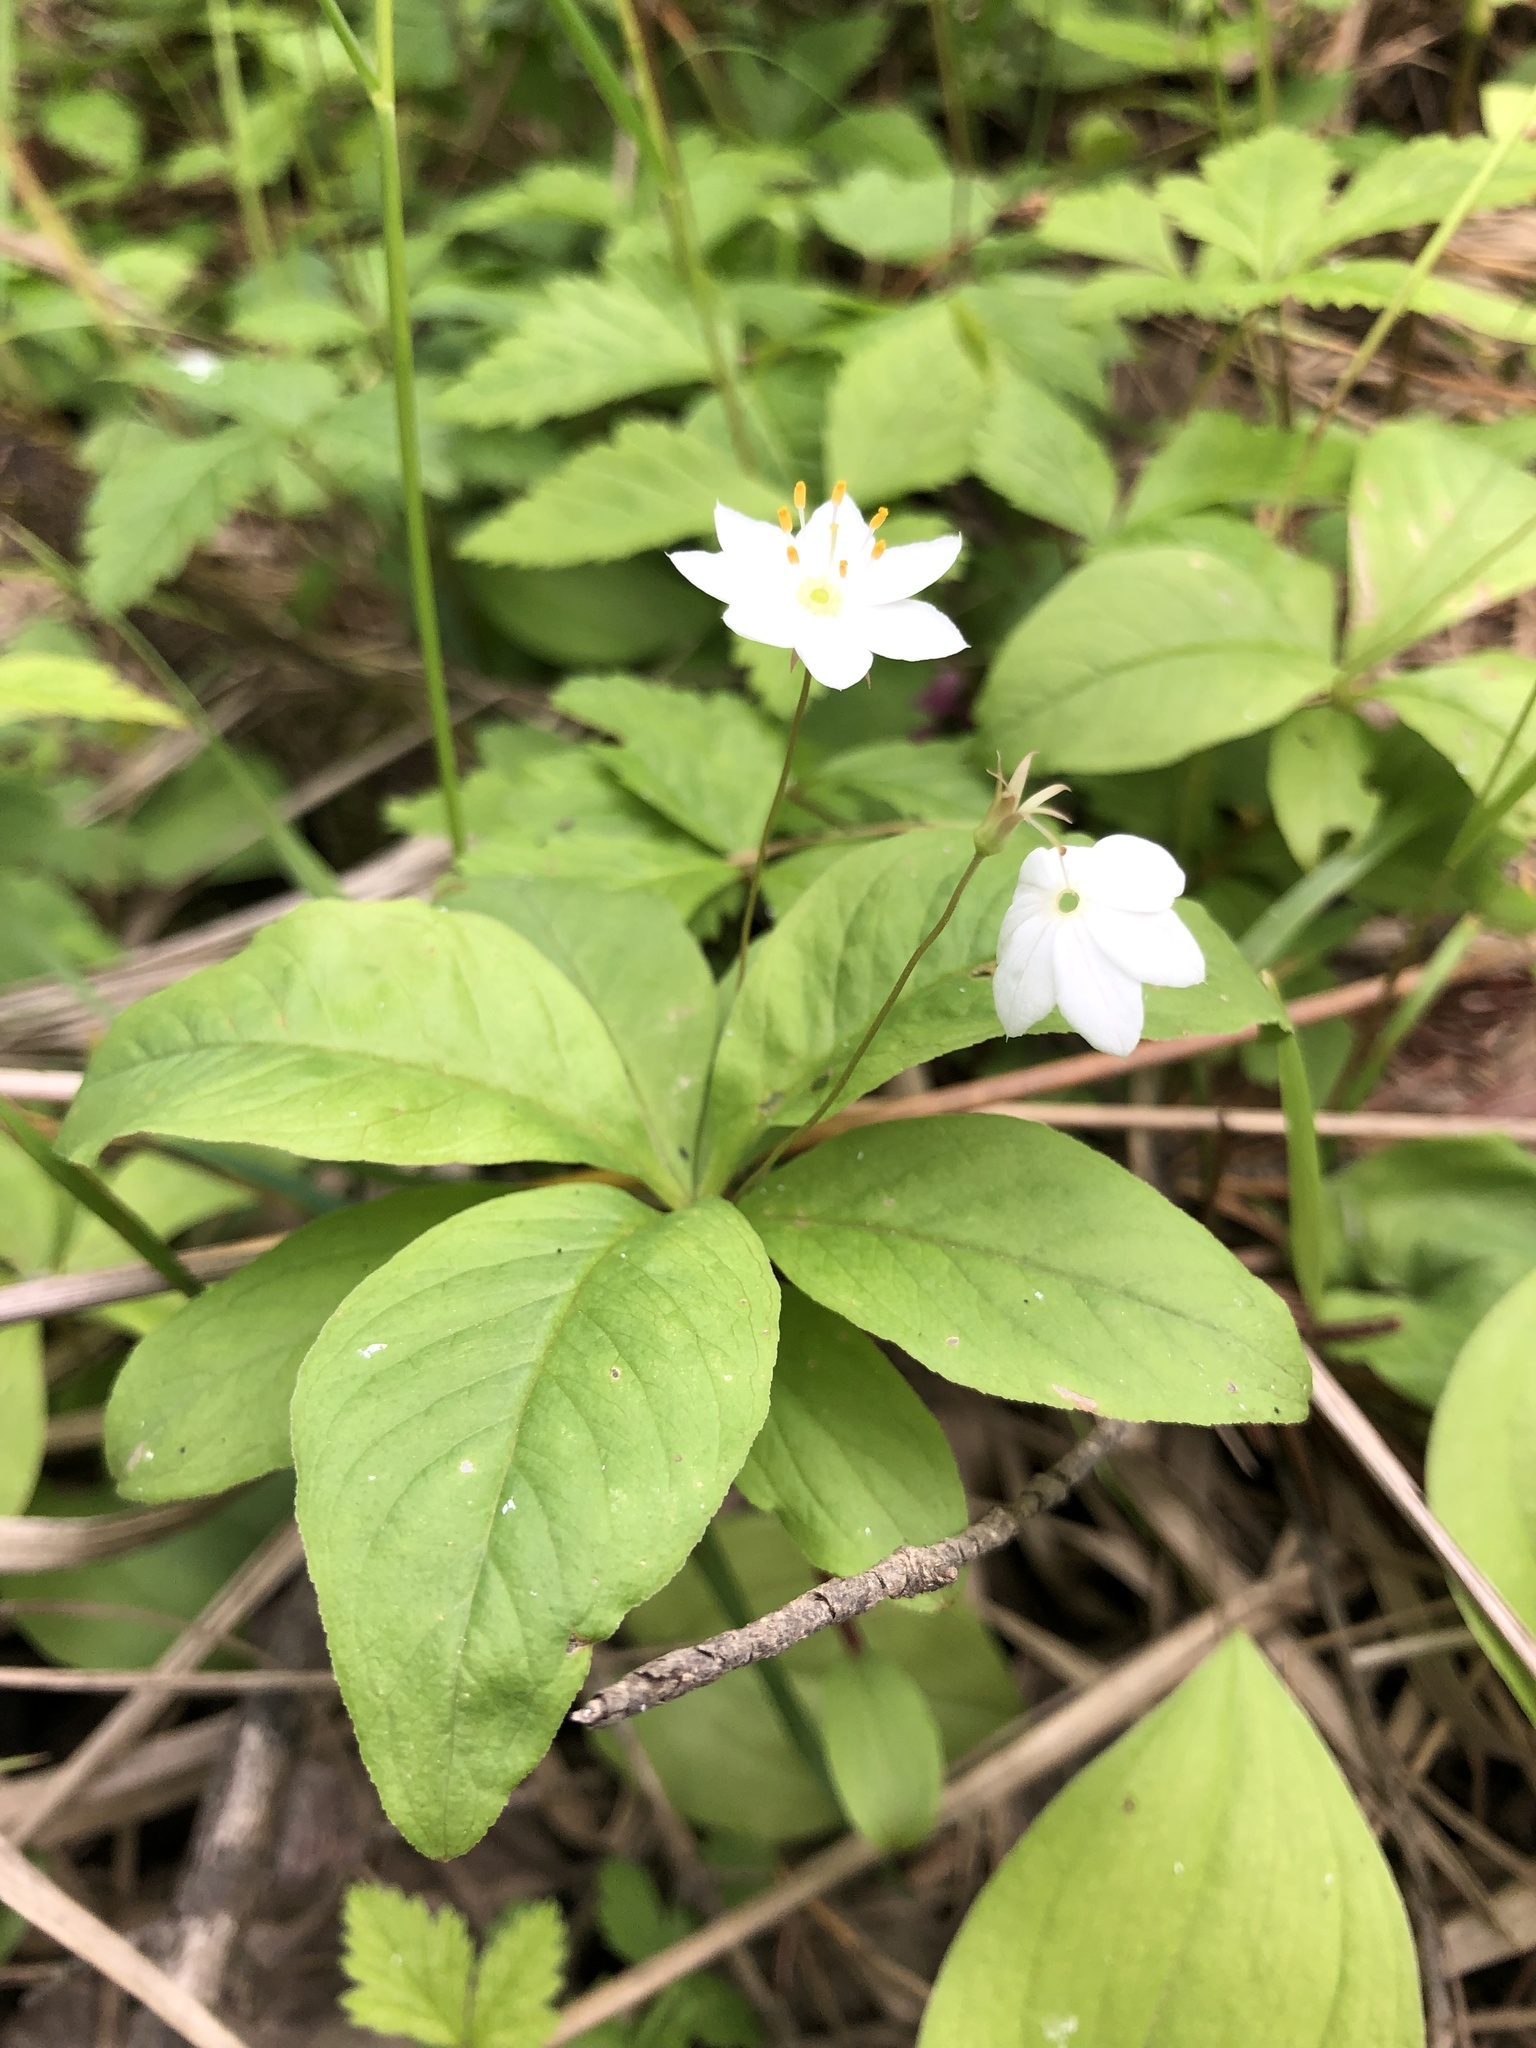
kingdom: Plantae
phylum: Tracheophyta
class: Magnoliopsida
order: Ericales
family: Primulaceae
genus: Lysimachia
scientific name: Lysimachia europaea
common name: Arctic starflower
